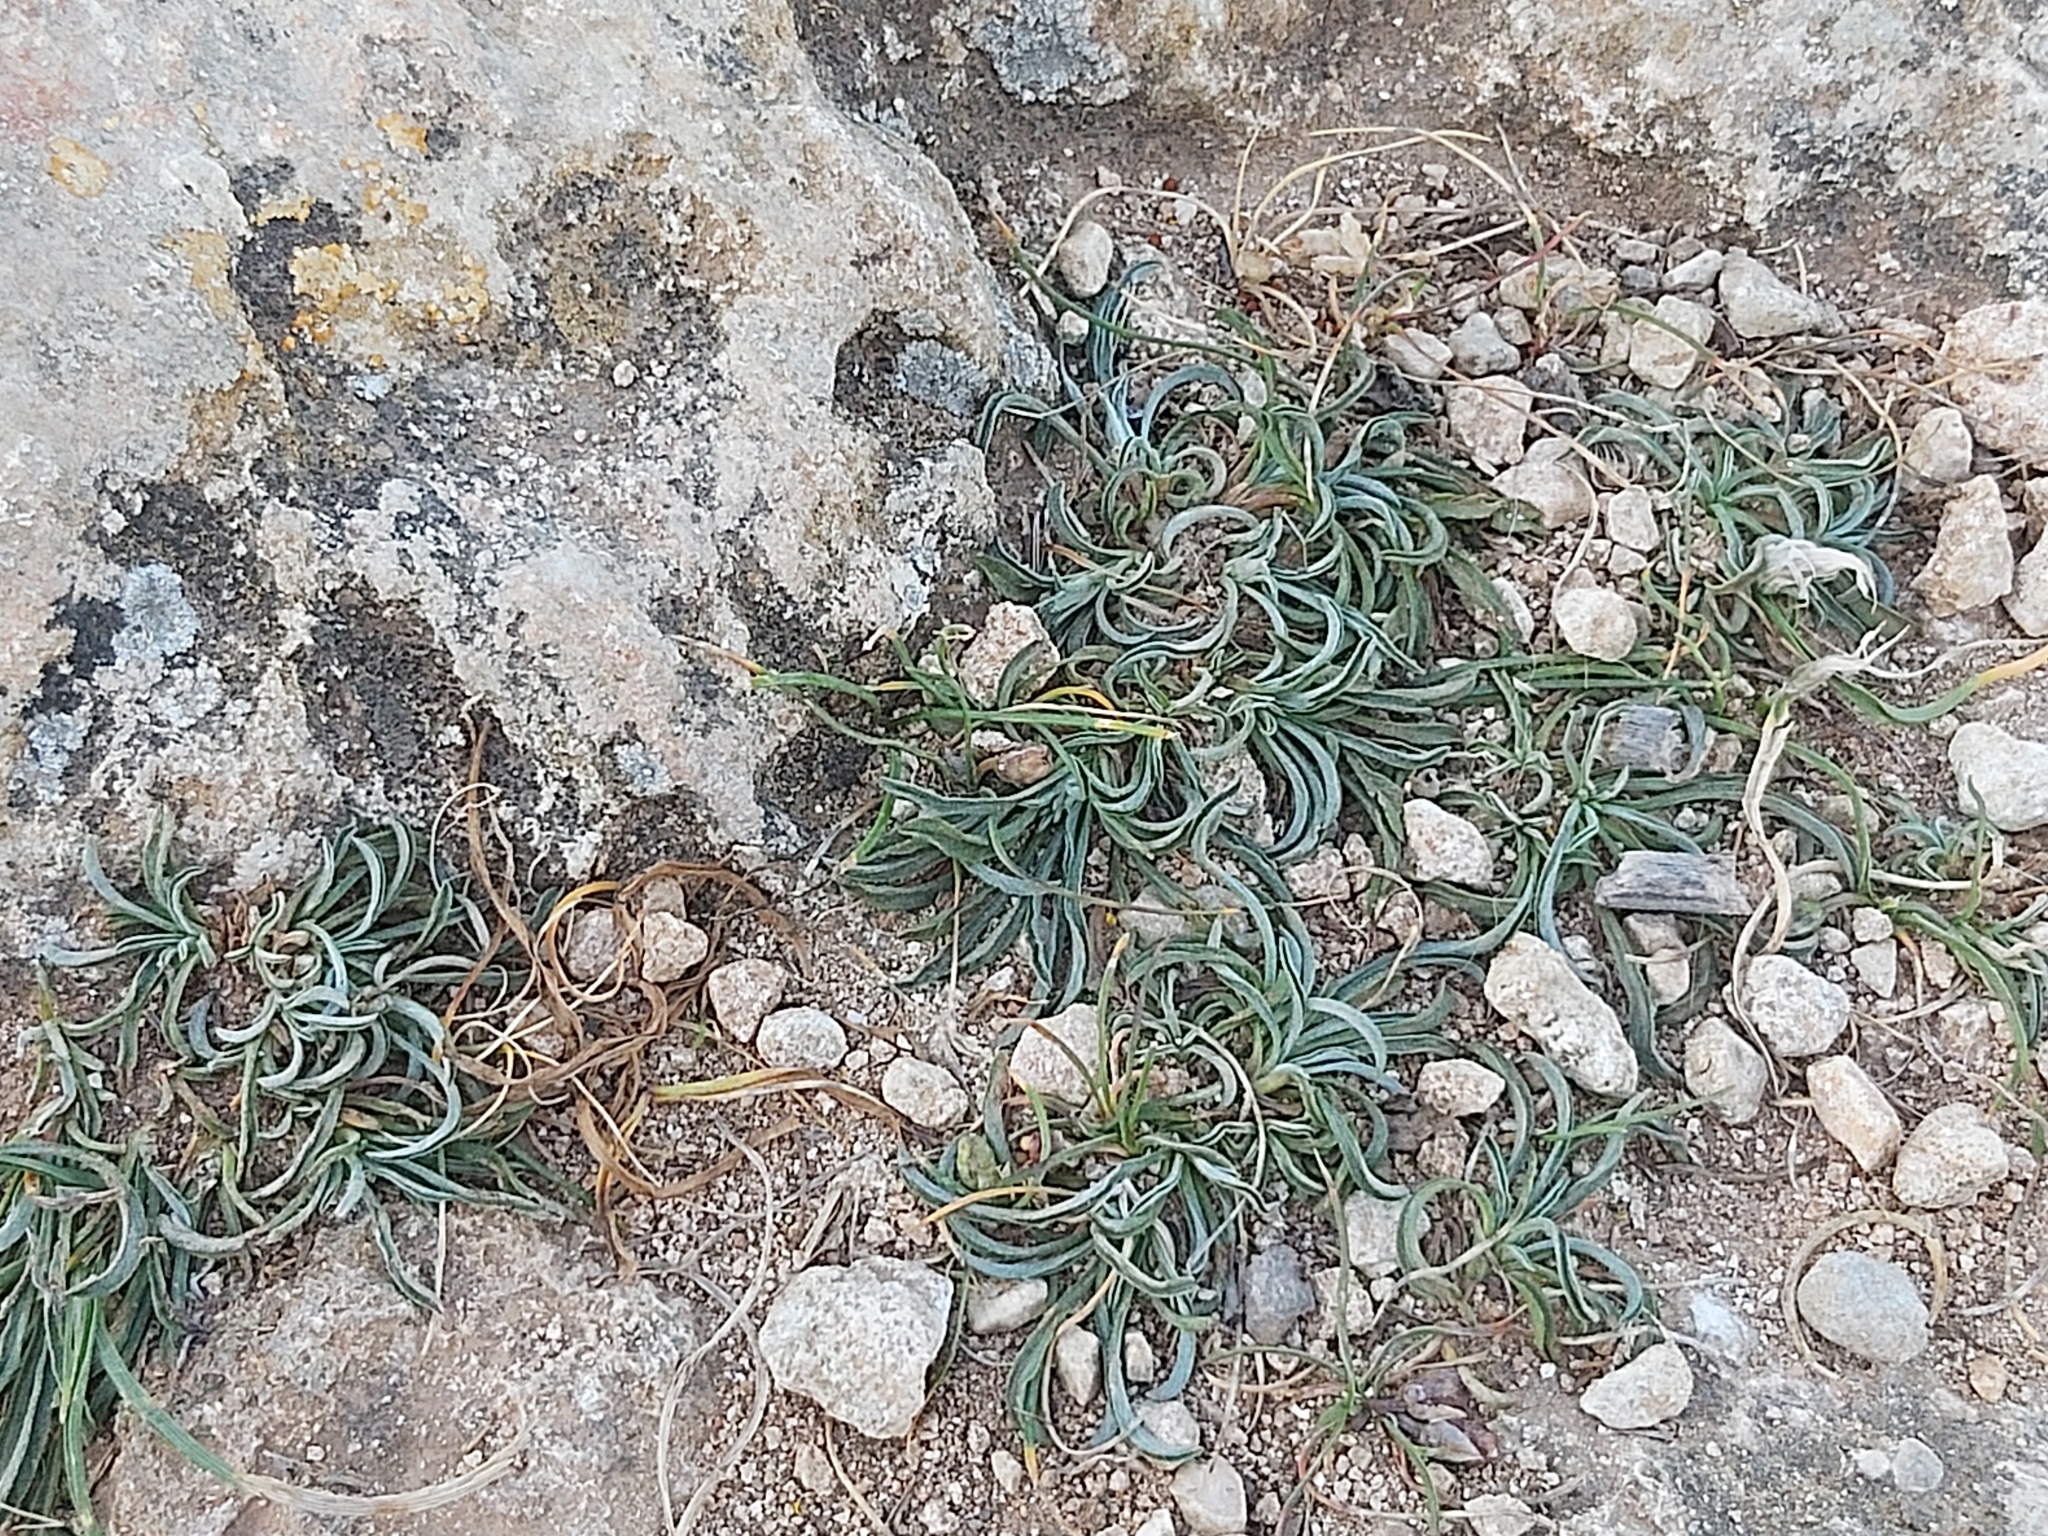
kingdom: Plantae
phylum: Tracheophyta
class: Magnoliopsida
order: Solanales
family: Convolvulaceae
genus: Convolvulus
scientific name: Convolvulus lineatus
